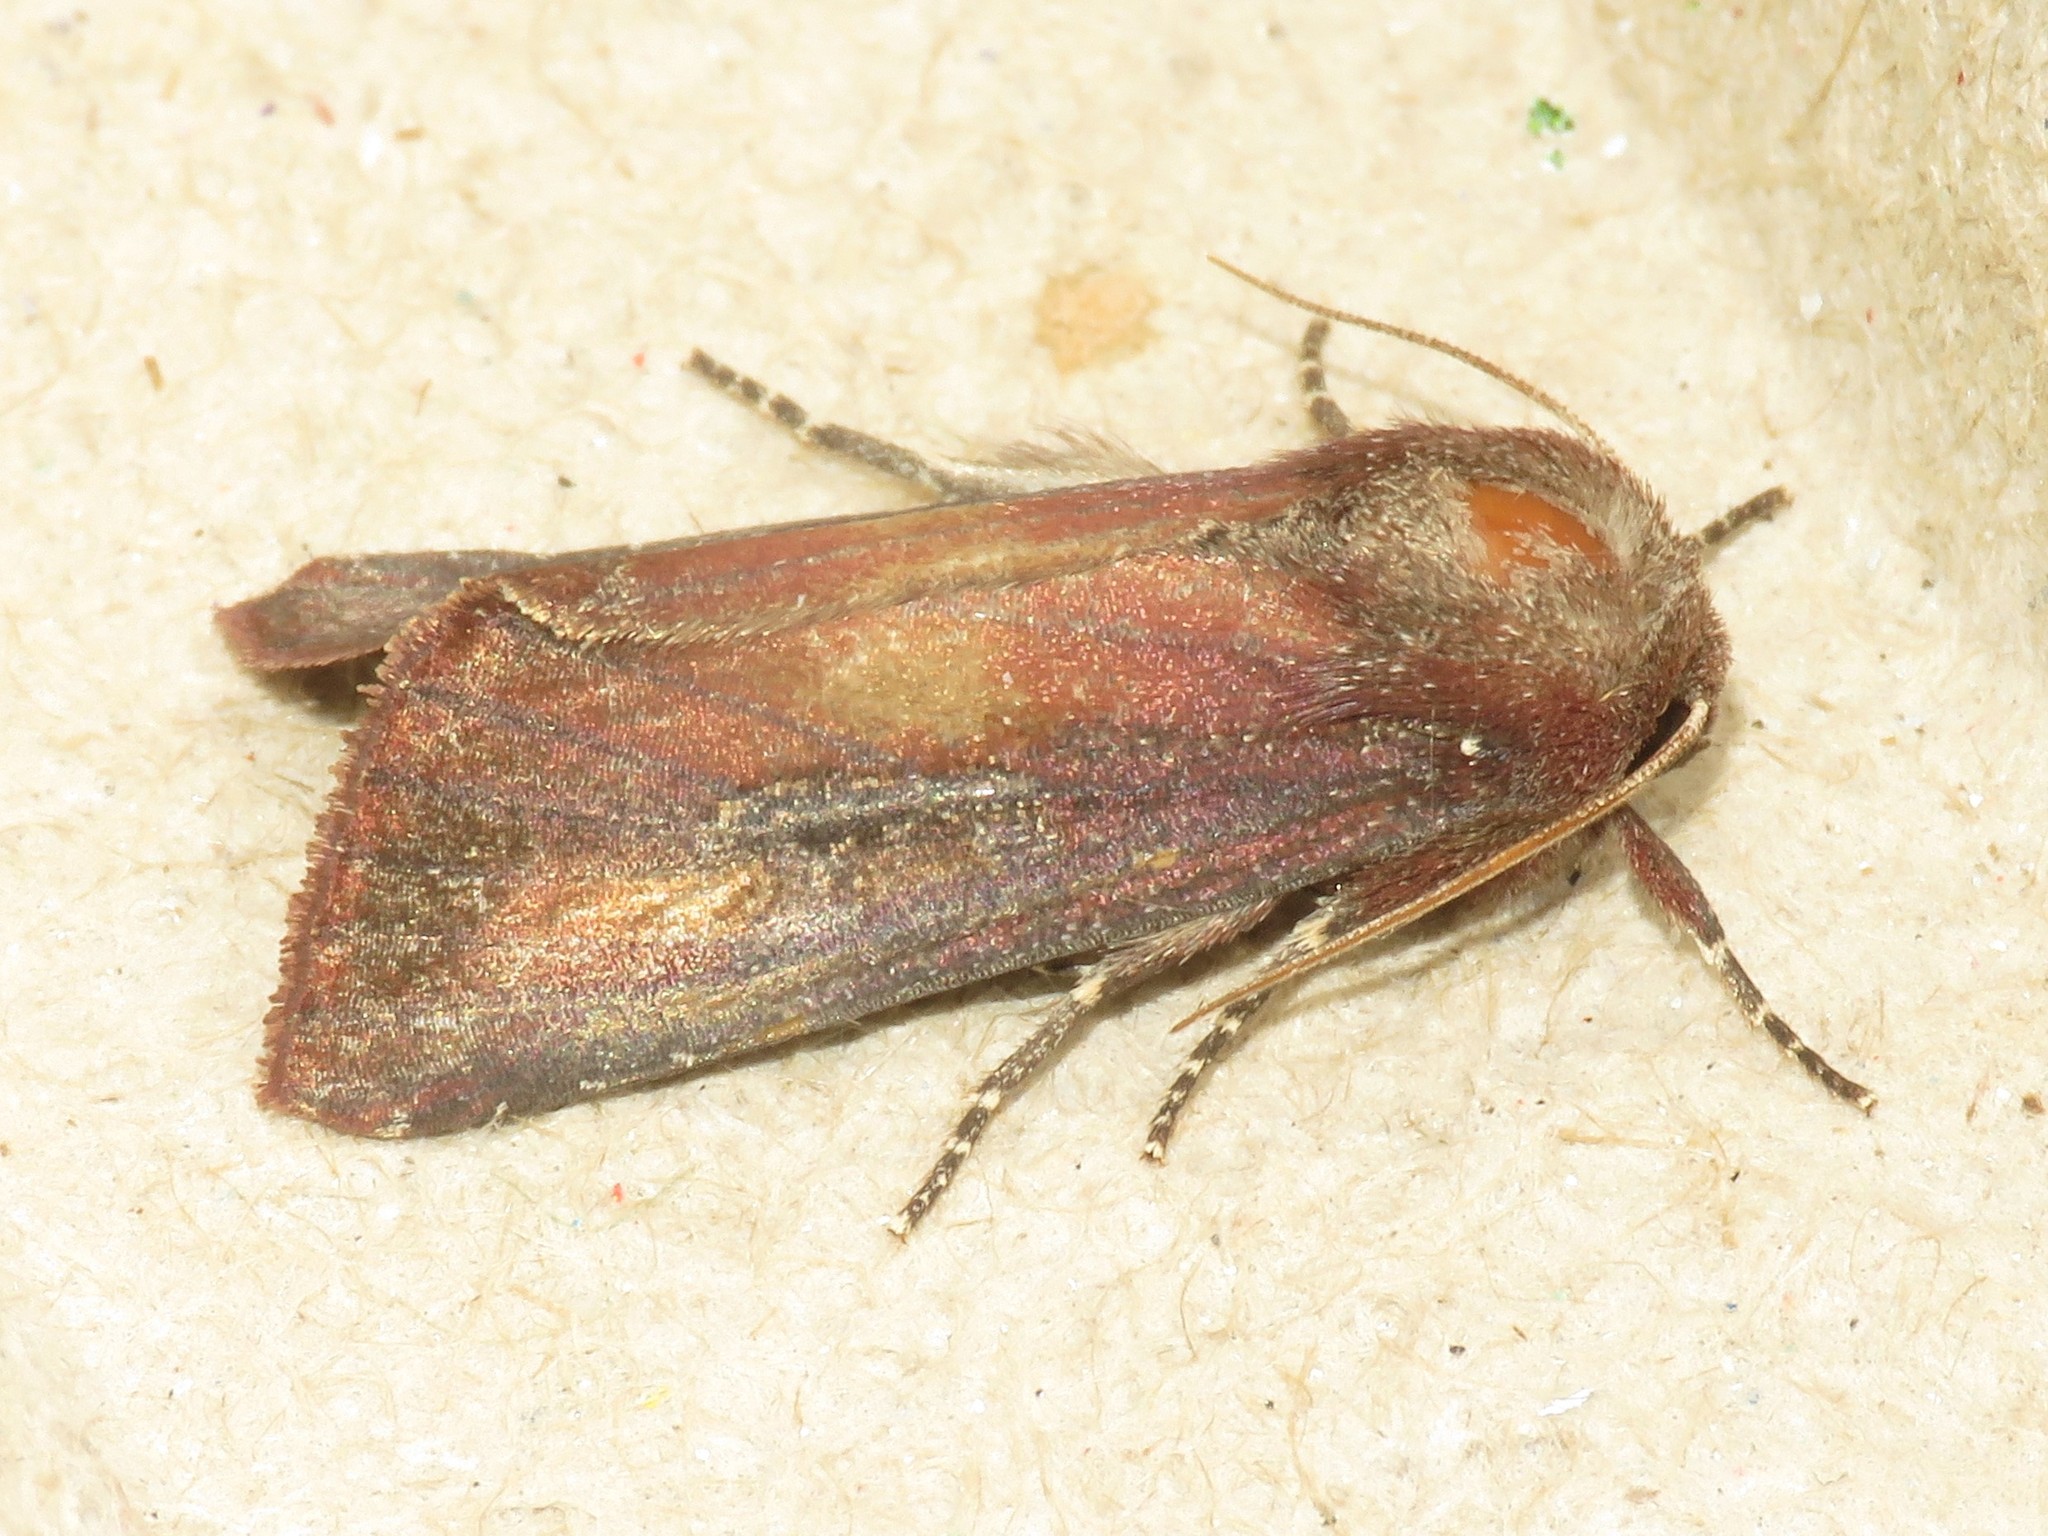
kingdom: Animalia
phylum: Arthropoda
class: Insecta
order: Lepidoptera
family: Noctuidae
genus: Melanchra
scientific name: Melanchra picta
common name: Zebra caterpillar
